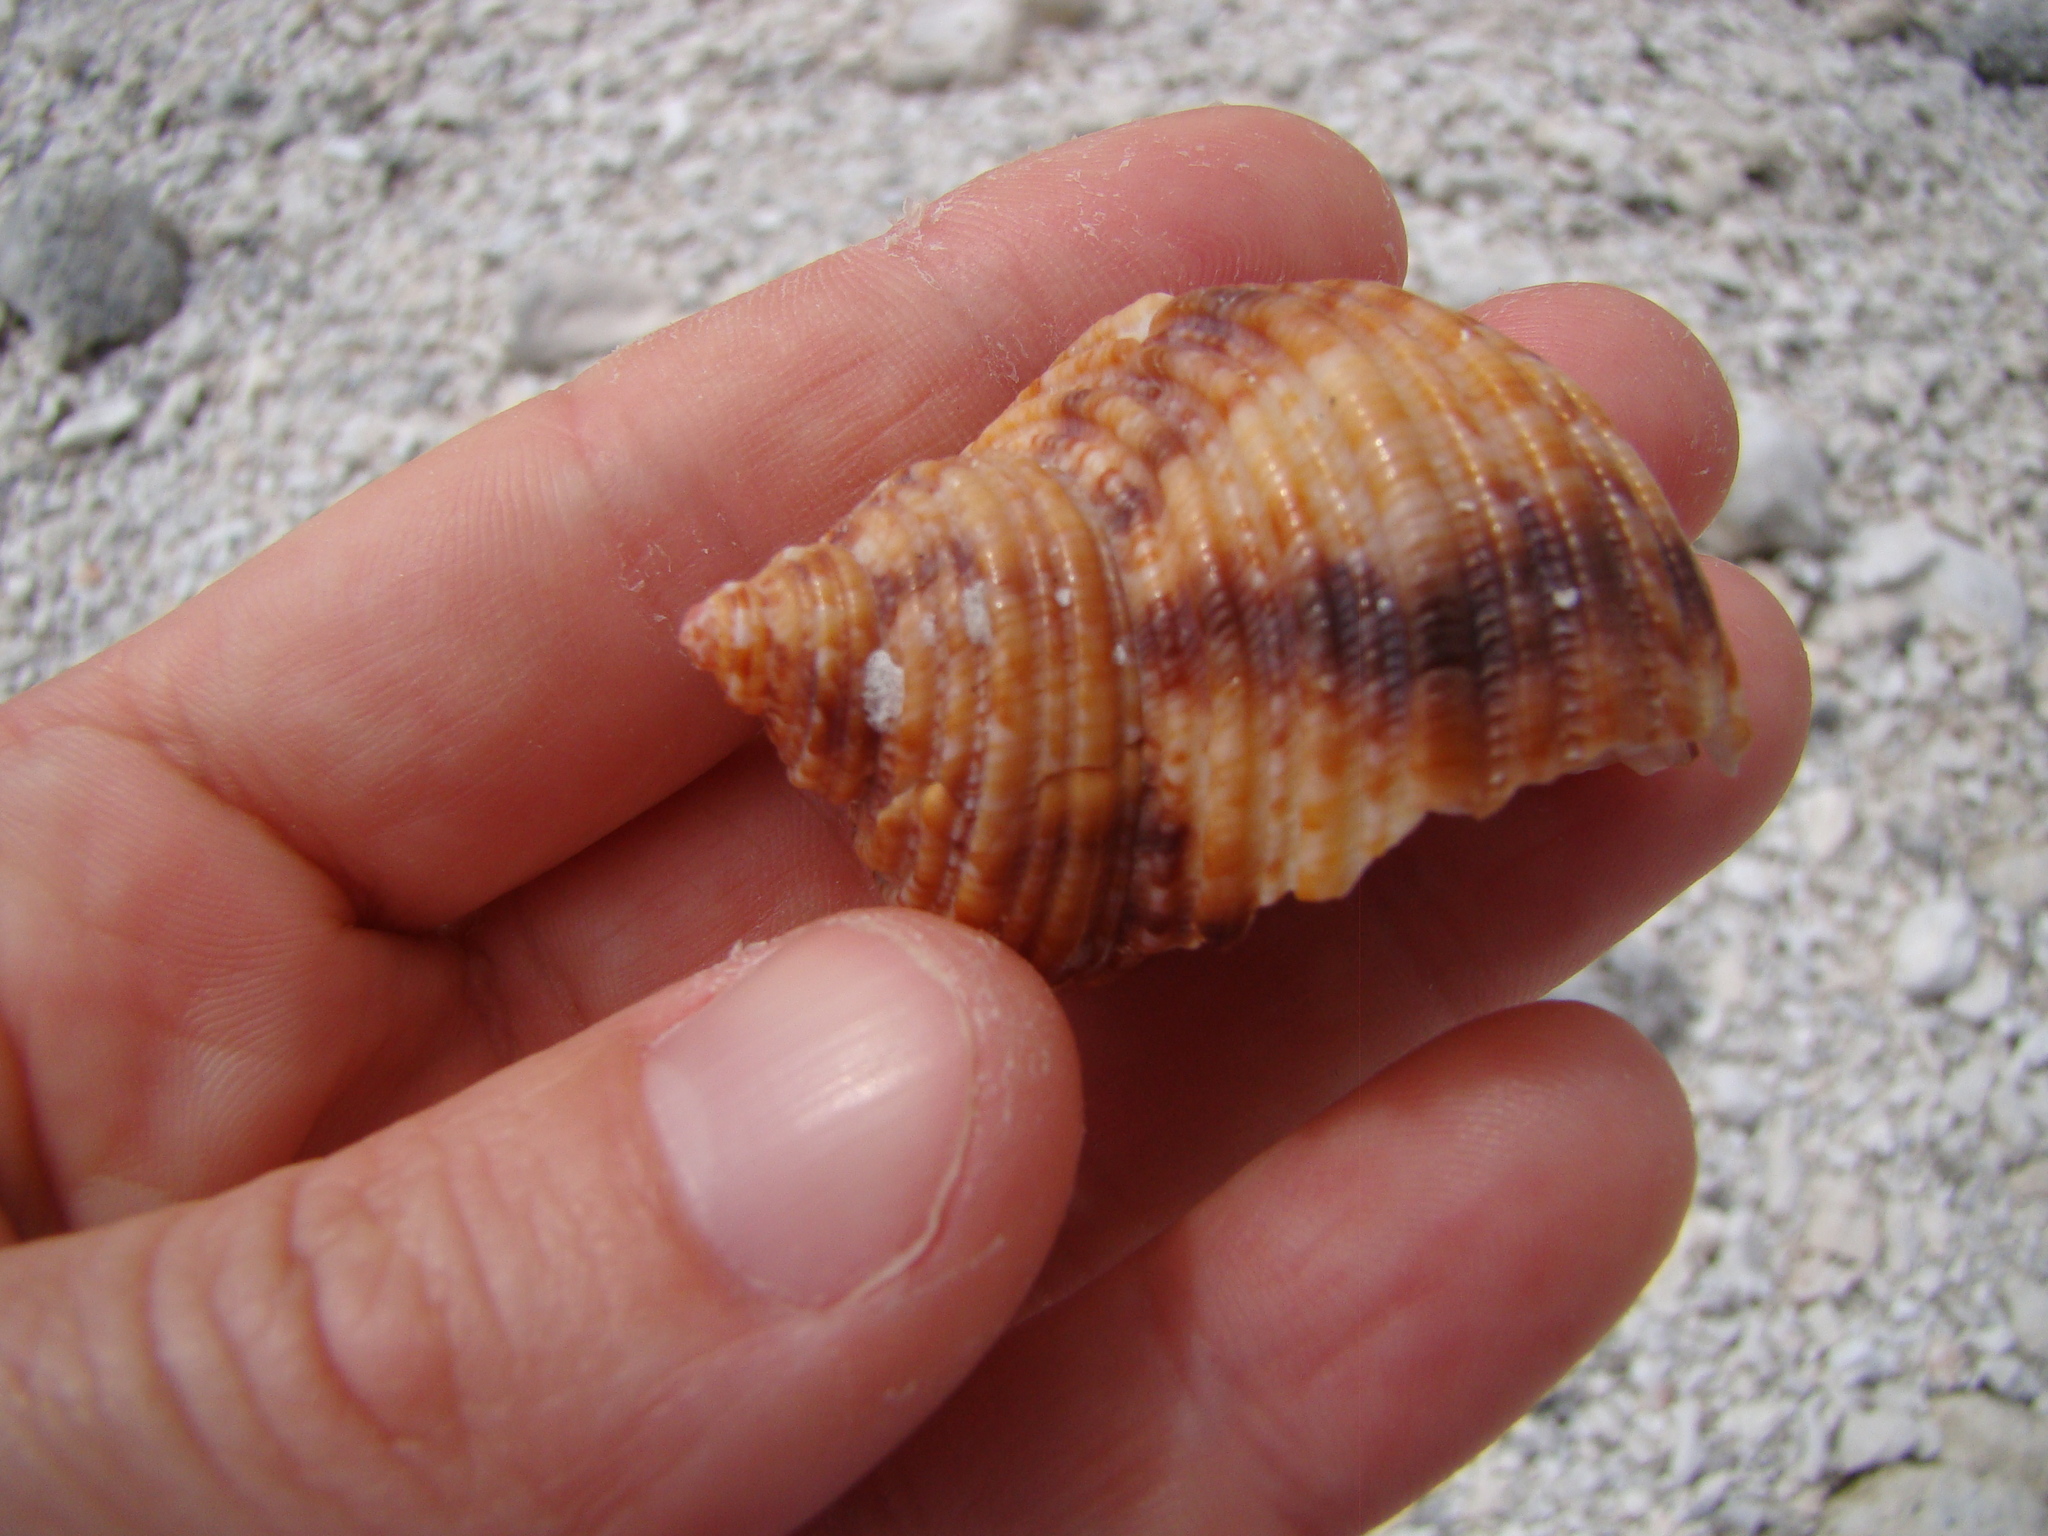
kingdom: Animalia
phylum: Mollusca
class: Gastropoda
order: Trochida
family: Turbinidae
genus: Turbo
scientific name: Turbo argyrostomus
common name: Silver-mouthed turban
